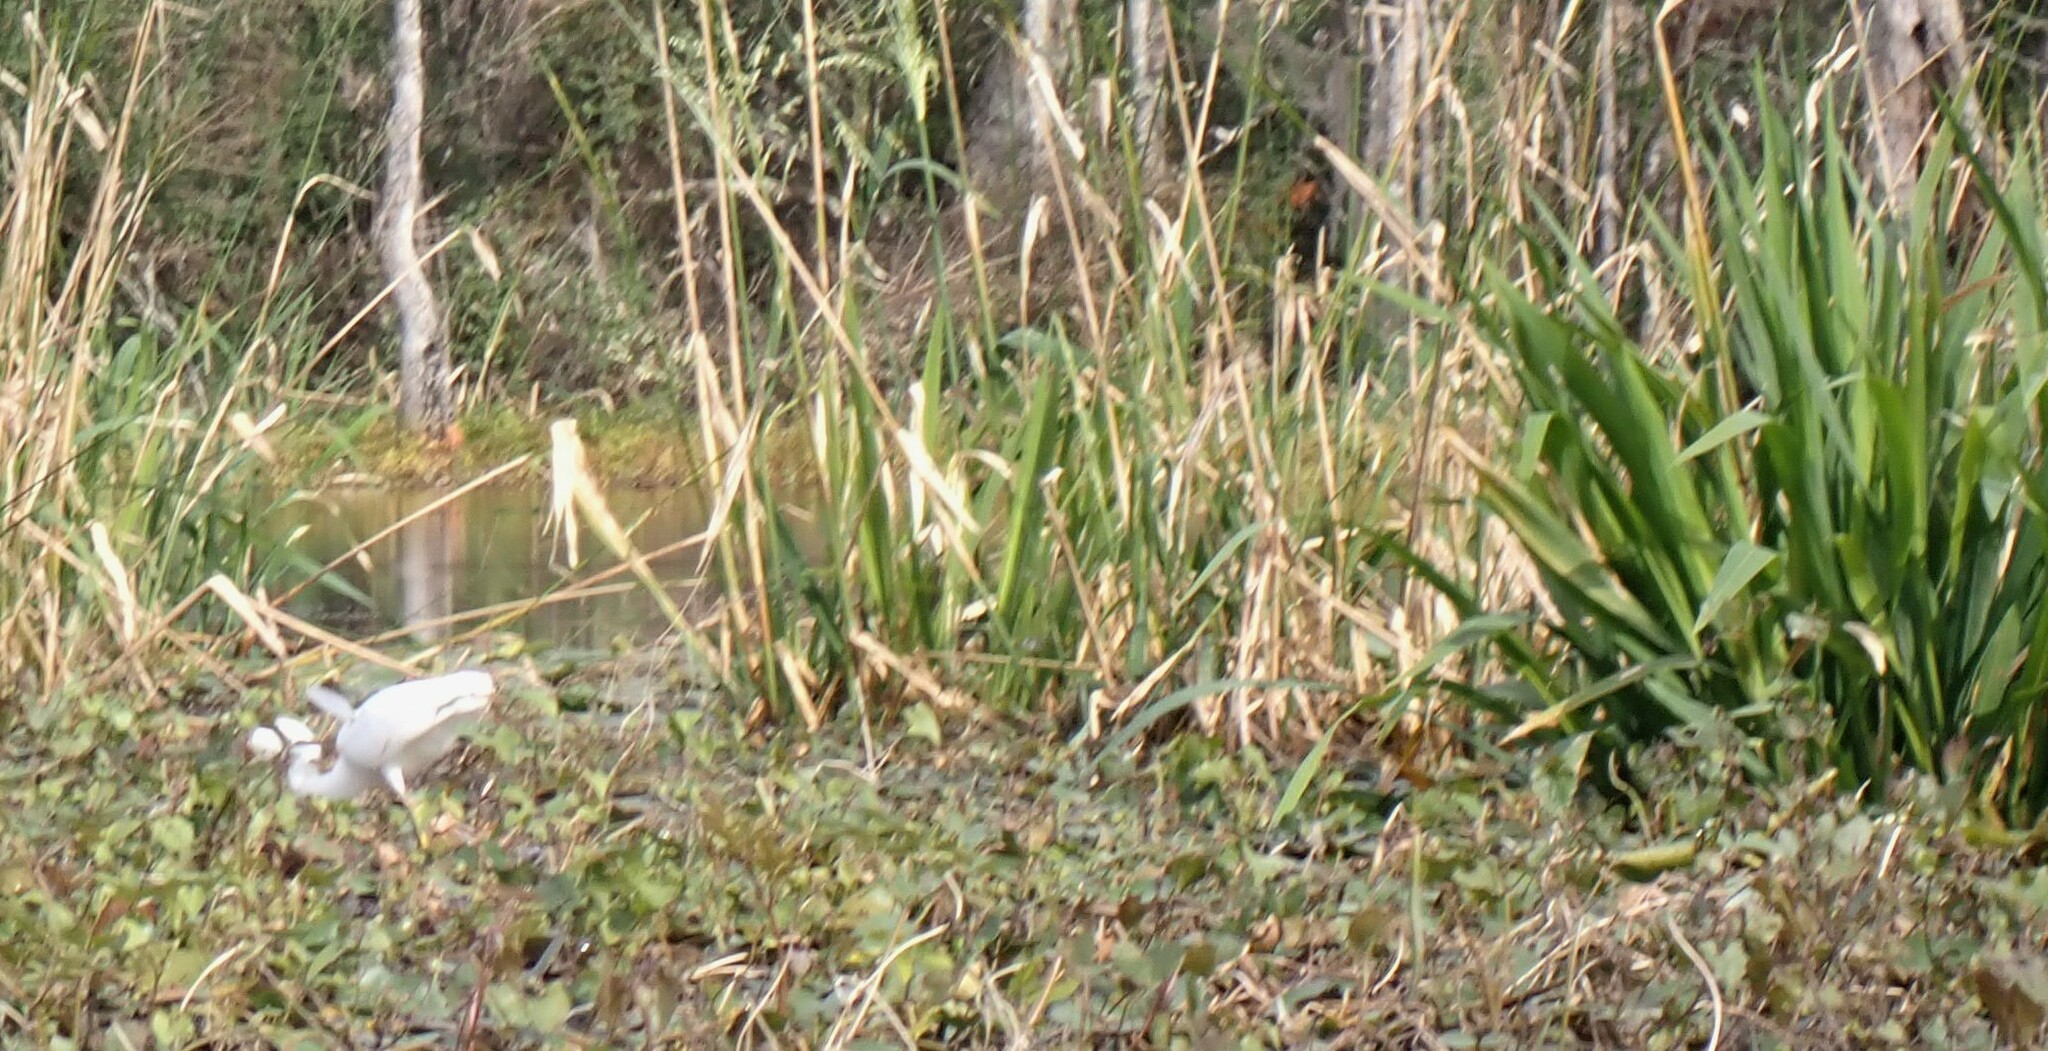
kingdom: Animalia
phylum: Chordata
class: Aves
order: Pelecaniformes
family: Ardeidae
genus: Egretta
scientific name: Egretta thula
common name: Snowy egret
